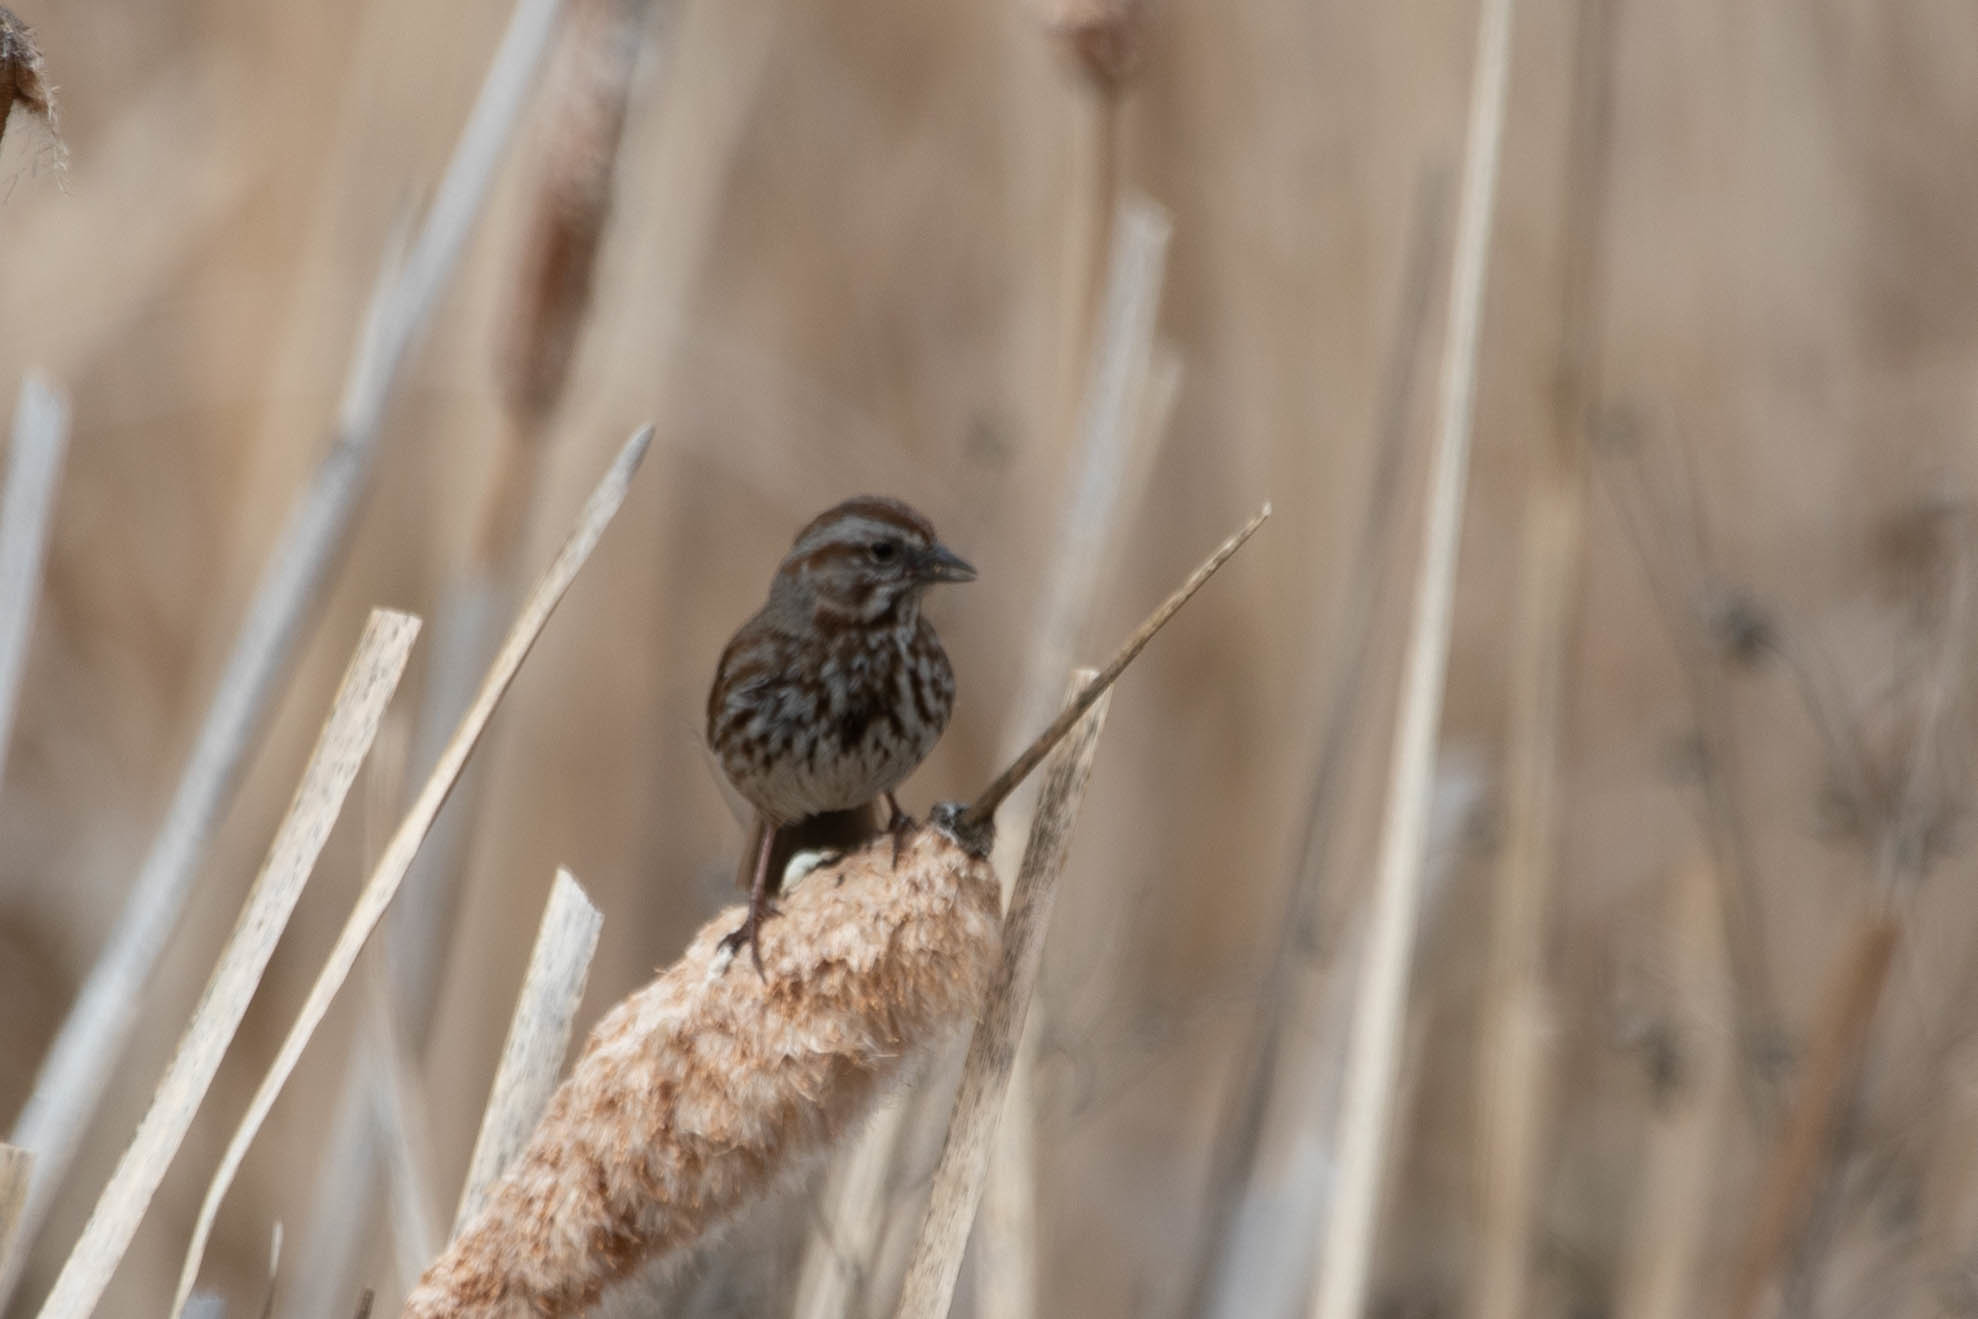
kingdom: Animalia
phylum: Chordata
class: Aves
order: Passeriformes
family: Passerellidae
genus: Melospiza
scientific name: Melospiza melodia
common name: Song sparrow
